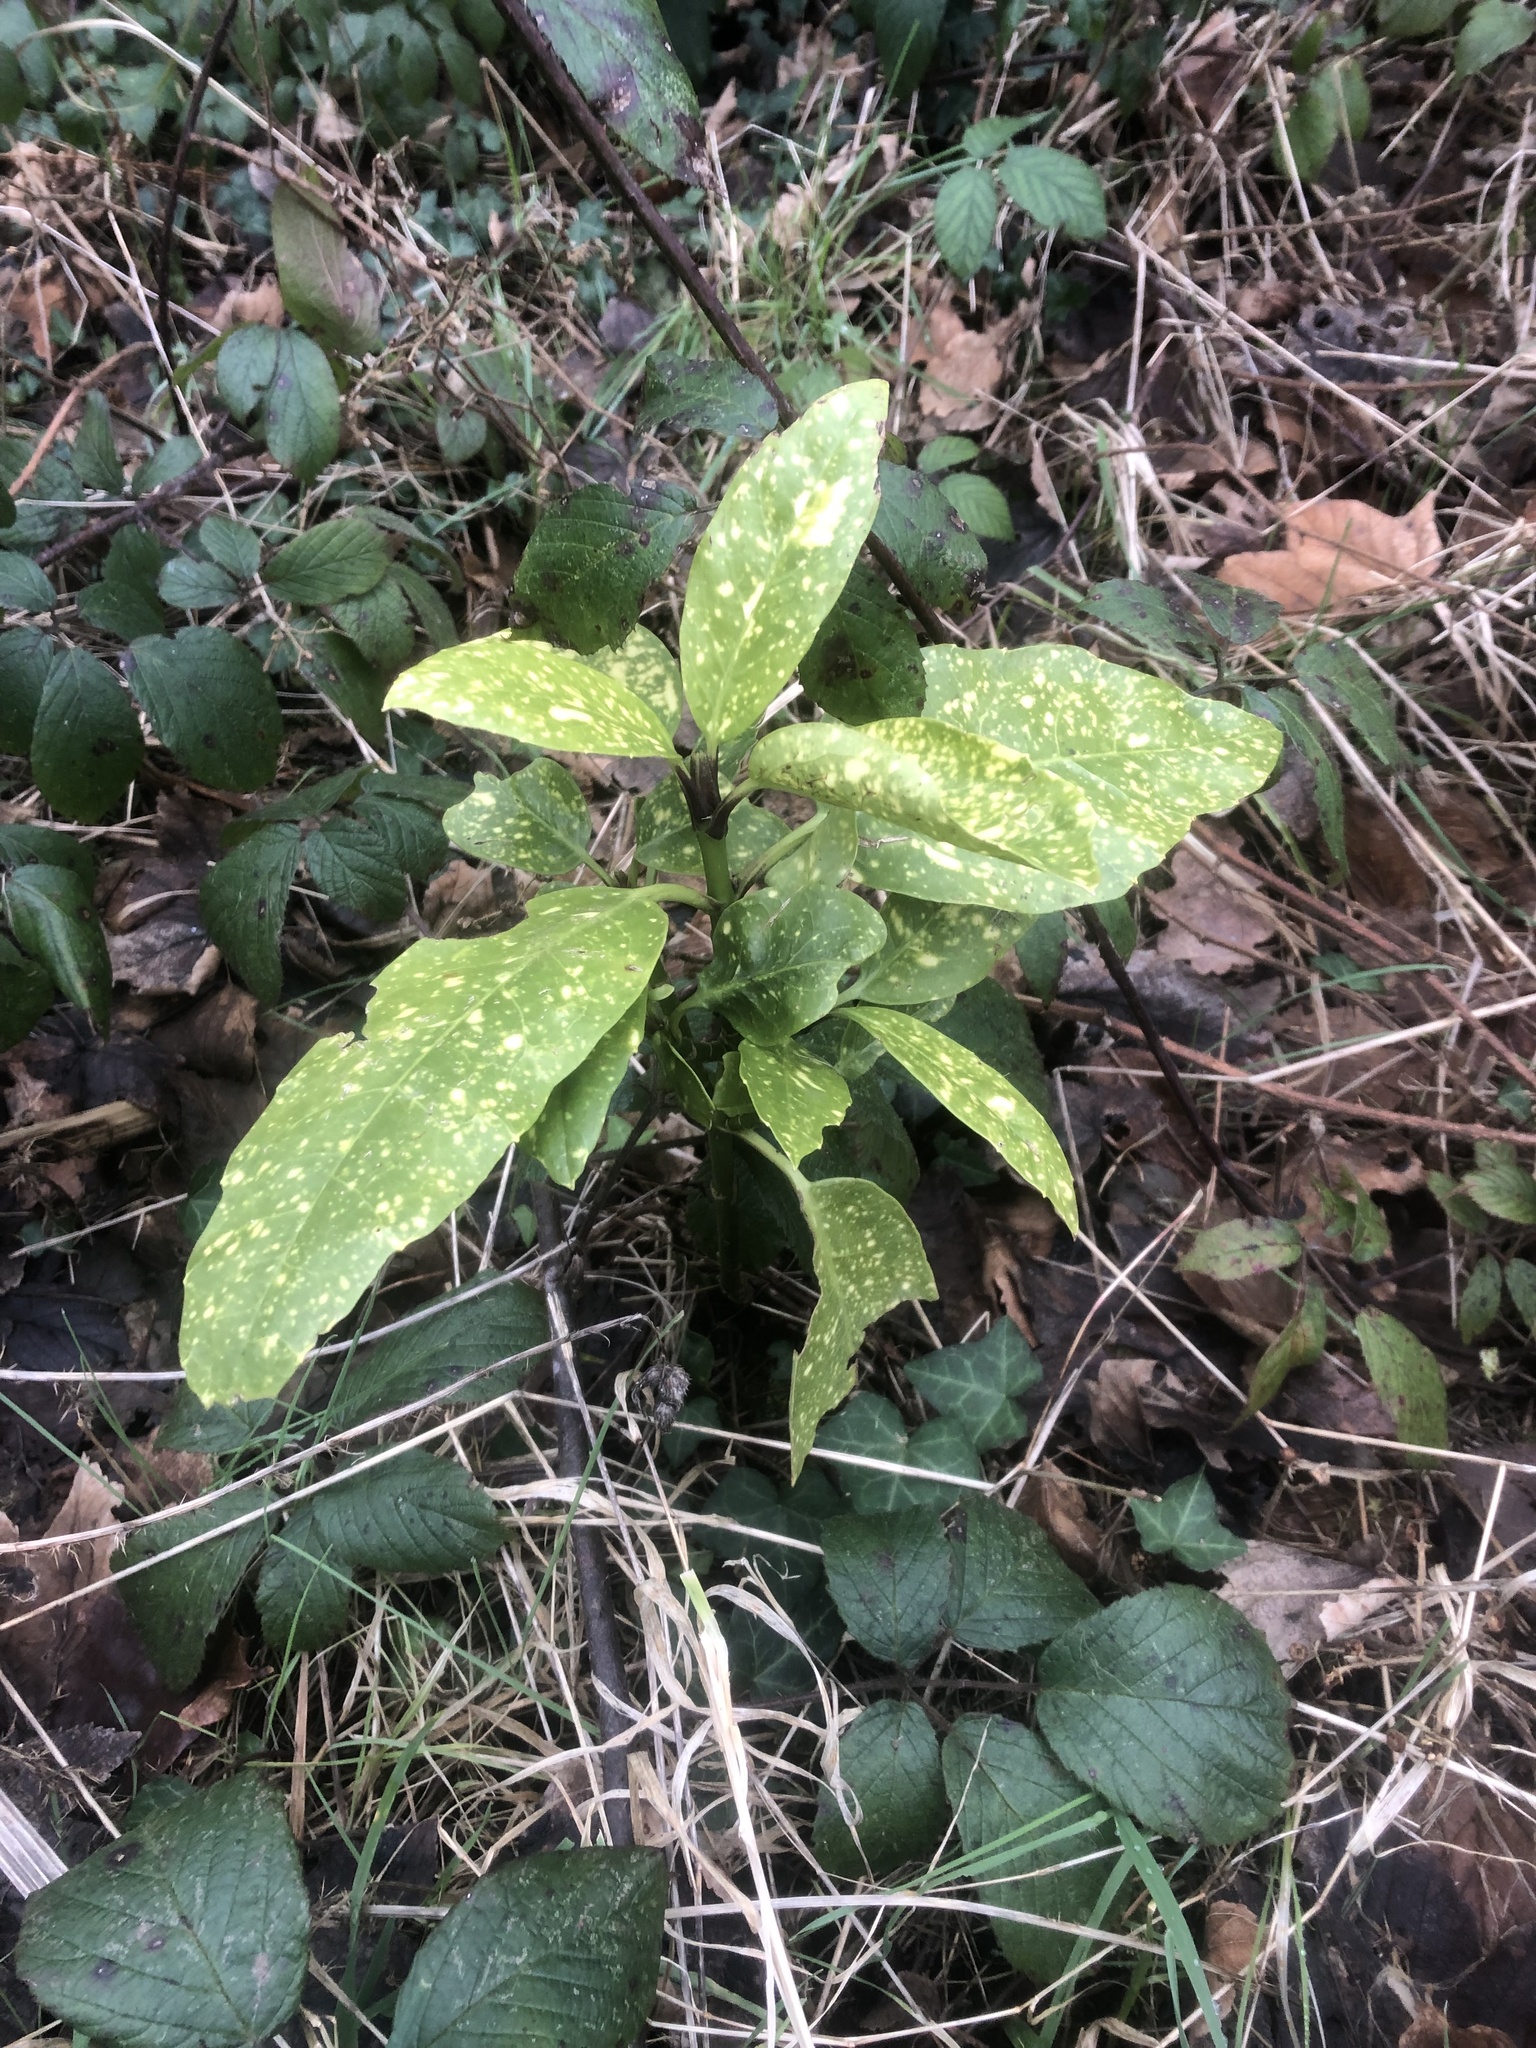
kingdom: Plantae
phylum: Tracheophyta
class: Magnoliopsida
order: Garryales
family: Garryaceae
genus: Aucuba
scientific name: Aucuba japonica
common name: Spotted-laurel
